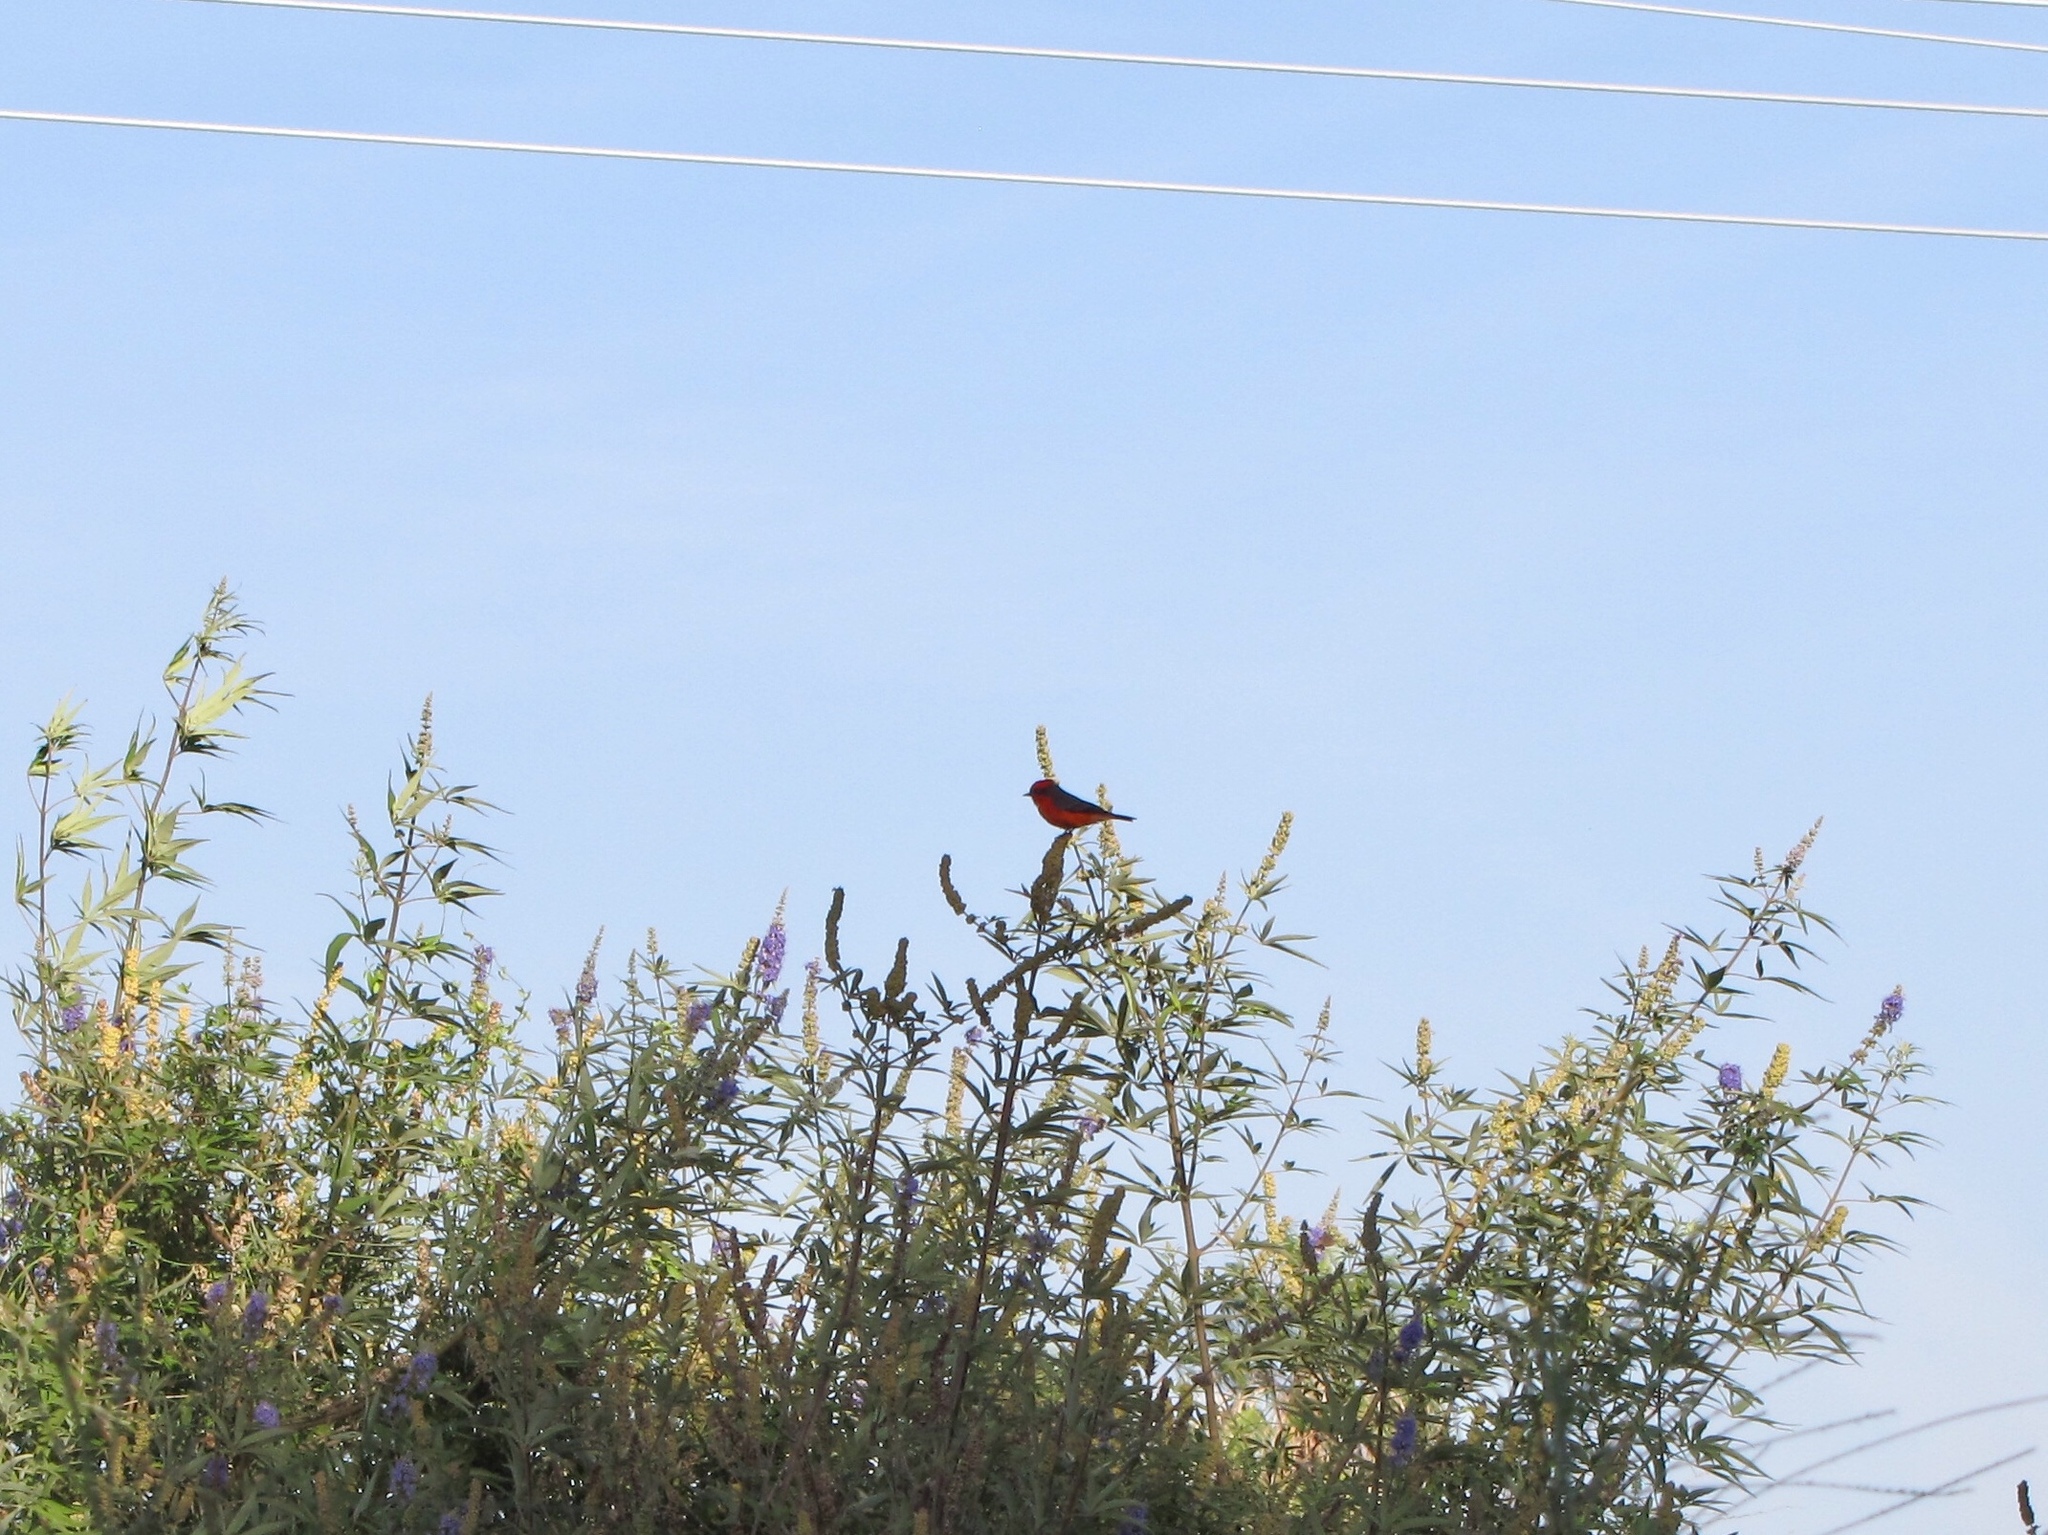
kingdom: Animalia
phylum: Chordata
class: Aves
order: Passeriformes
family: Tyrannidae
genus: Pyrocephalus
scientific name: Pyrocephalus rubinus
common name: Vermilion flycatcher
